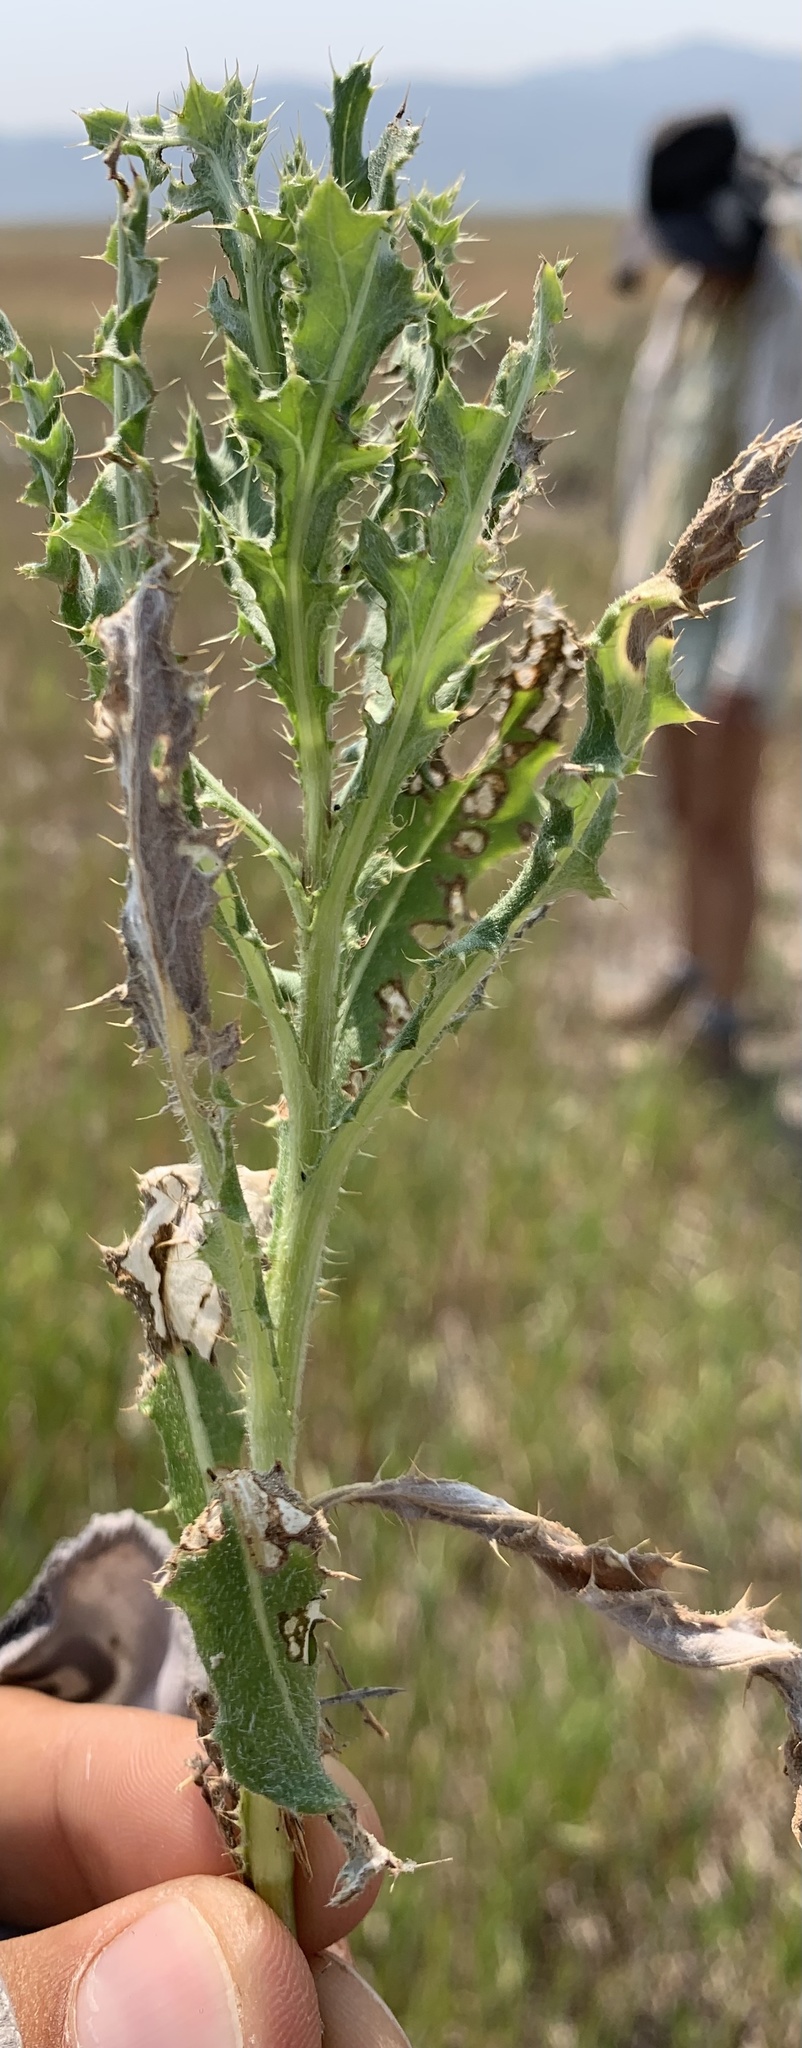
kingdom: Plantae
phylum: Tracheophyta
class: Magnoliopsida
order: Asterales
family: Asteraceae
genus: Cirsium
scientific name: Cirsium arvense
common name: Creeping thistle
